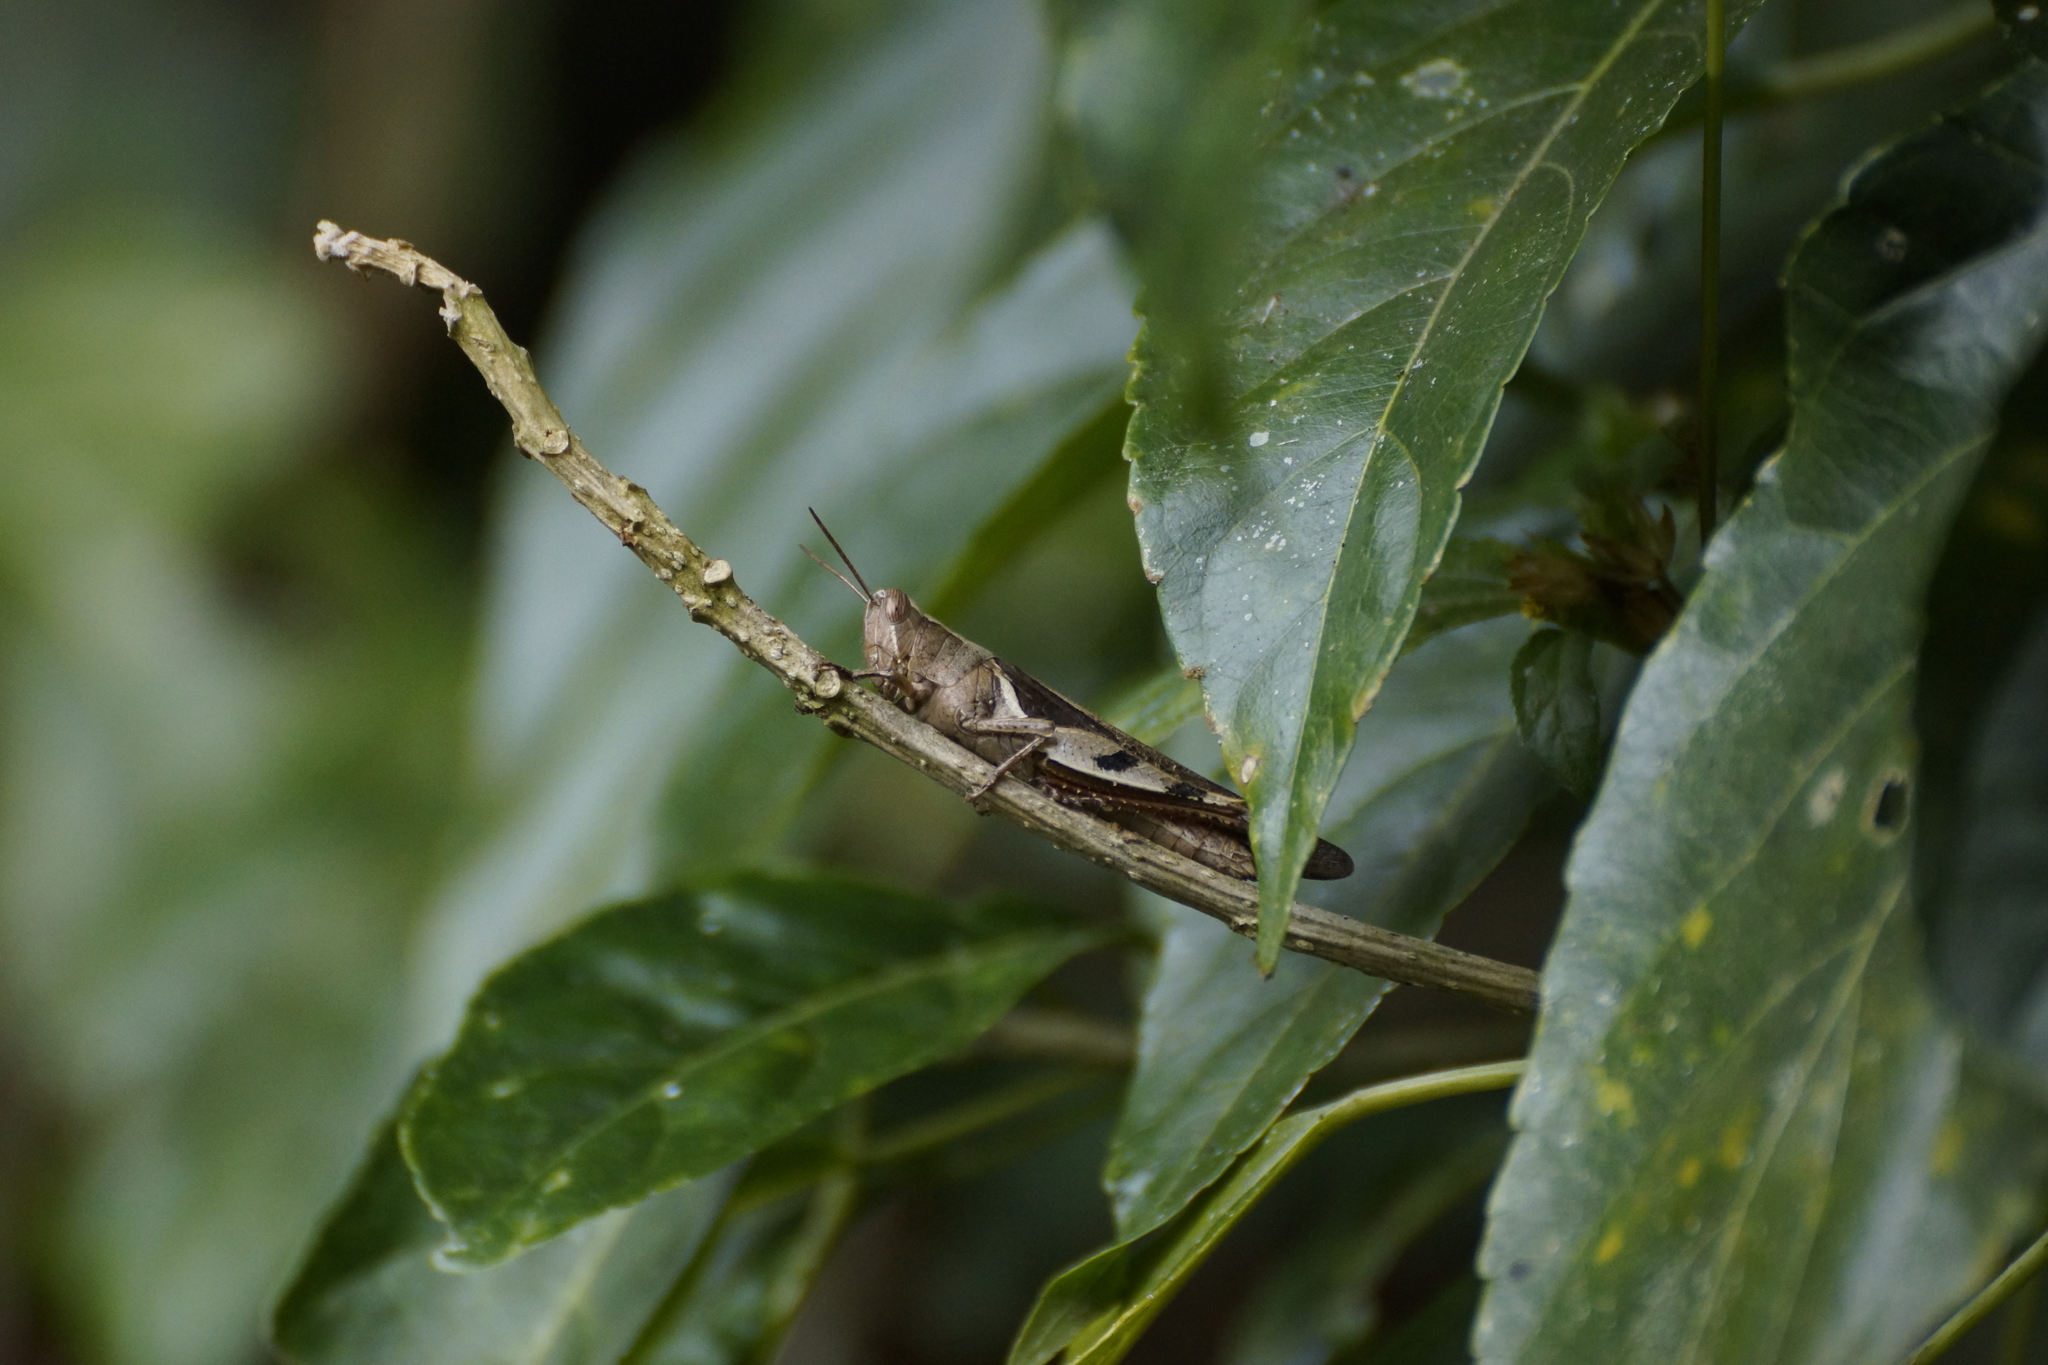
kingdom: Animalia
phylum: Arthropoda
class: Insecta
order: Orthoptera
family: Acrididae
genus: Stenocatantops
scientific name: Stenocatantops angustifrons
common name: Common tropical sharptail
